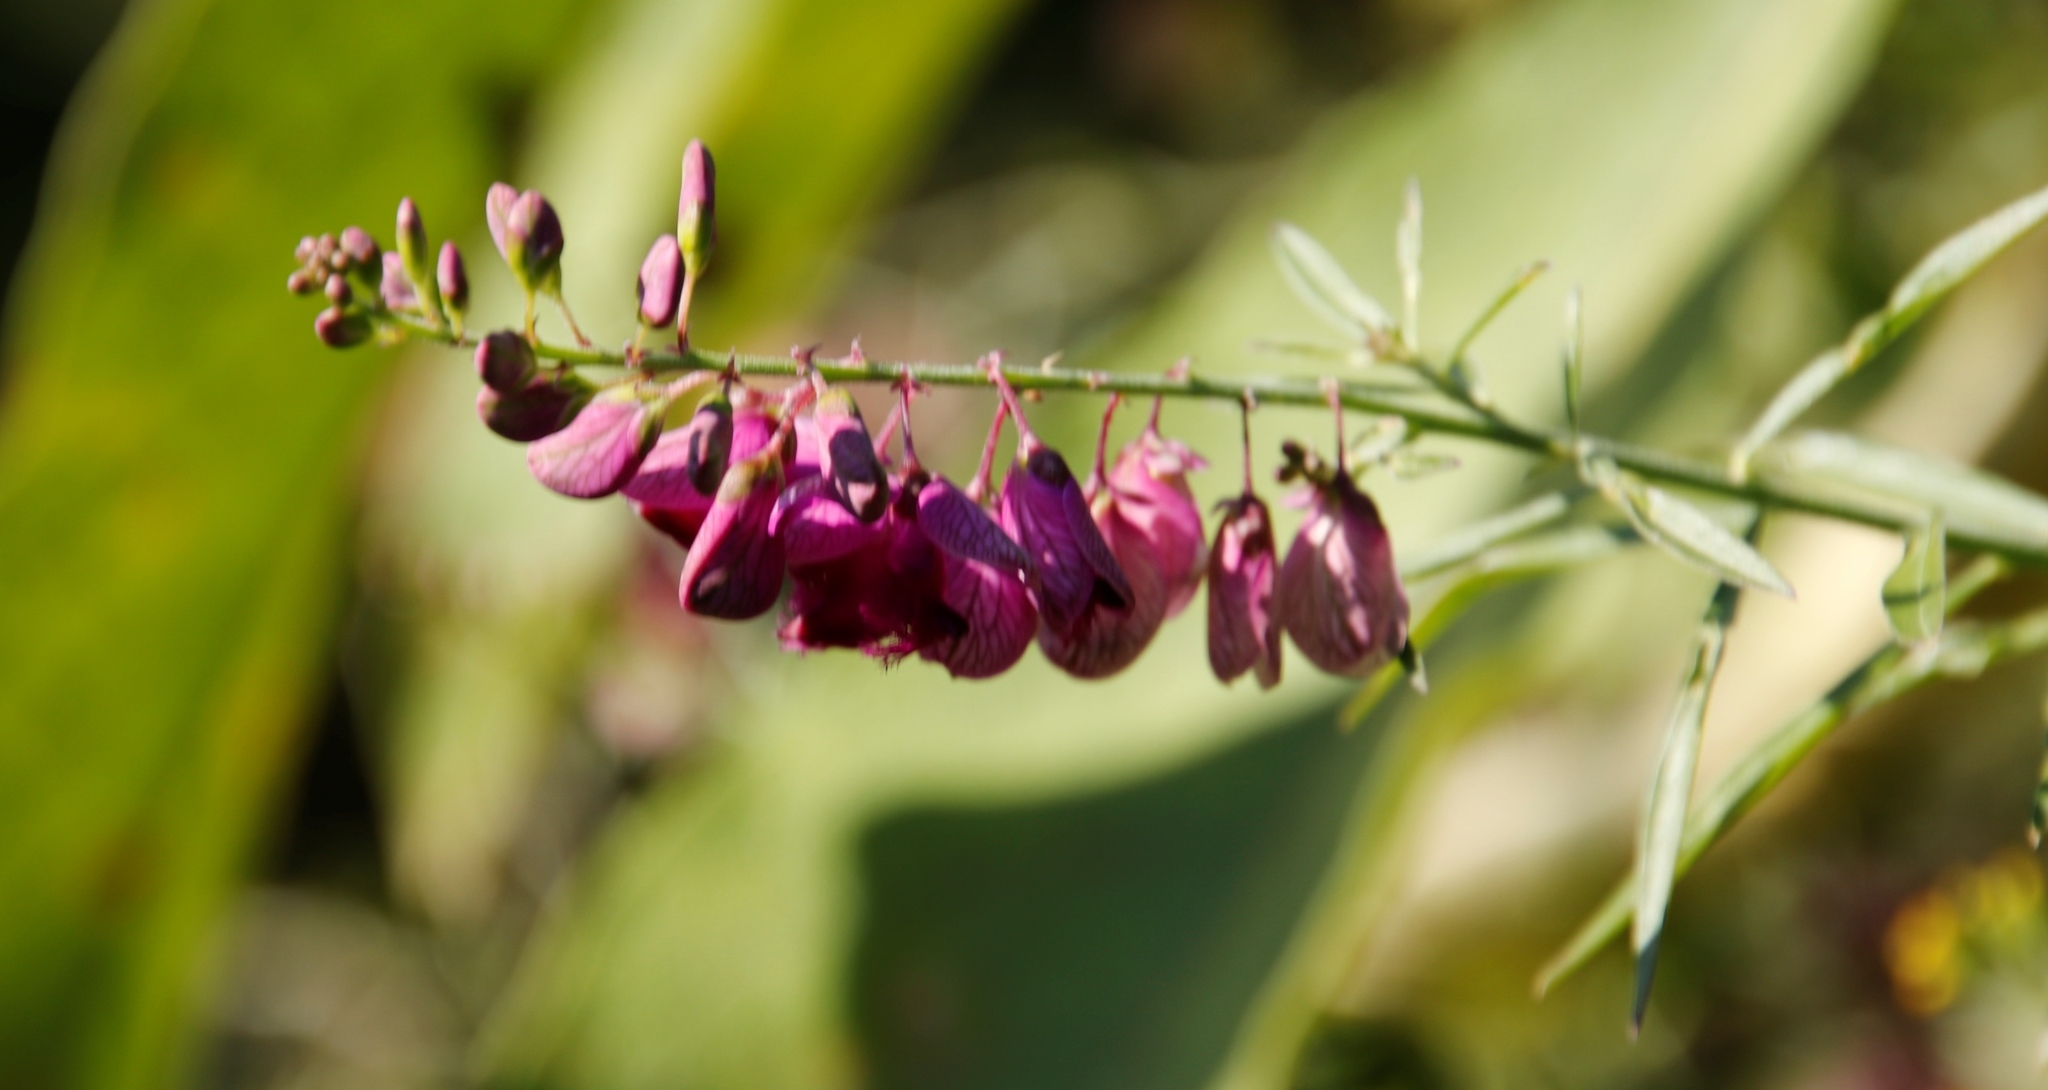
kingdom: Plantae
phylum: Tracheophyta
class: Magnoliopsida
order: Fabales
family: Polygalaceae
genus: Polygala
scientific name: Polygala virgata
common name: Milkwort
